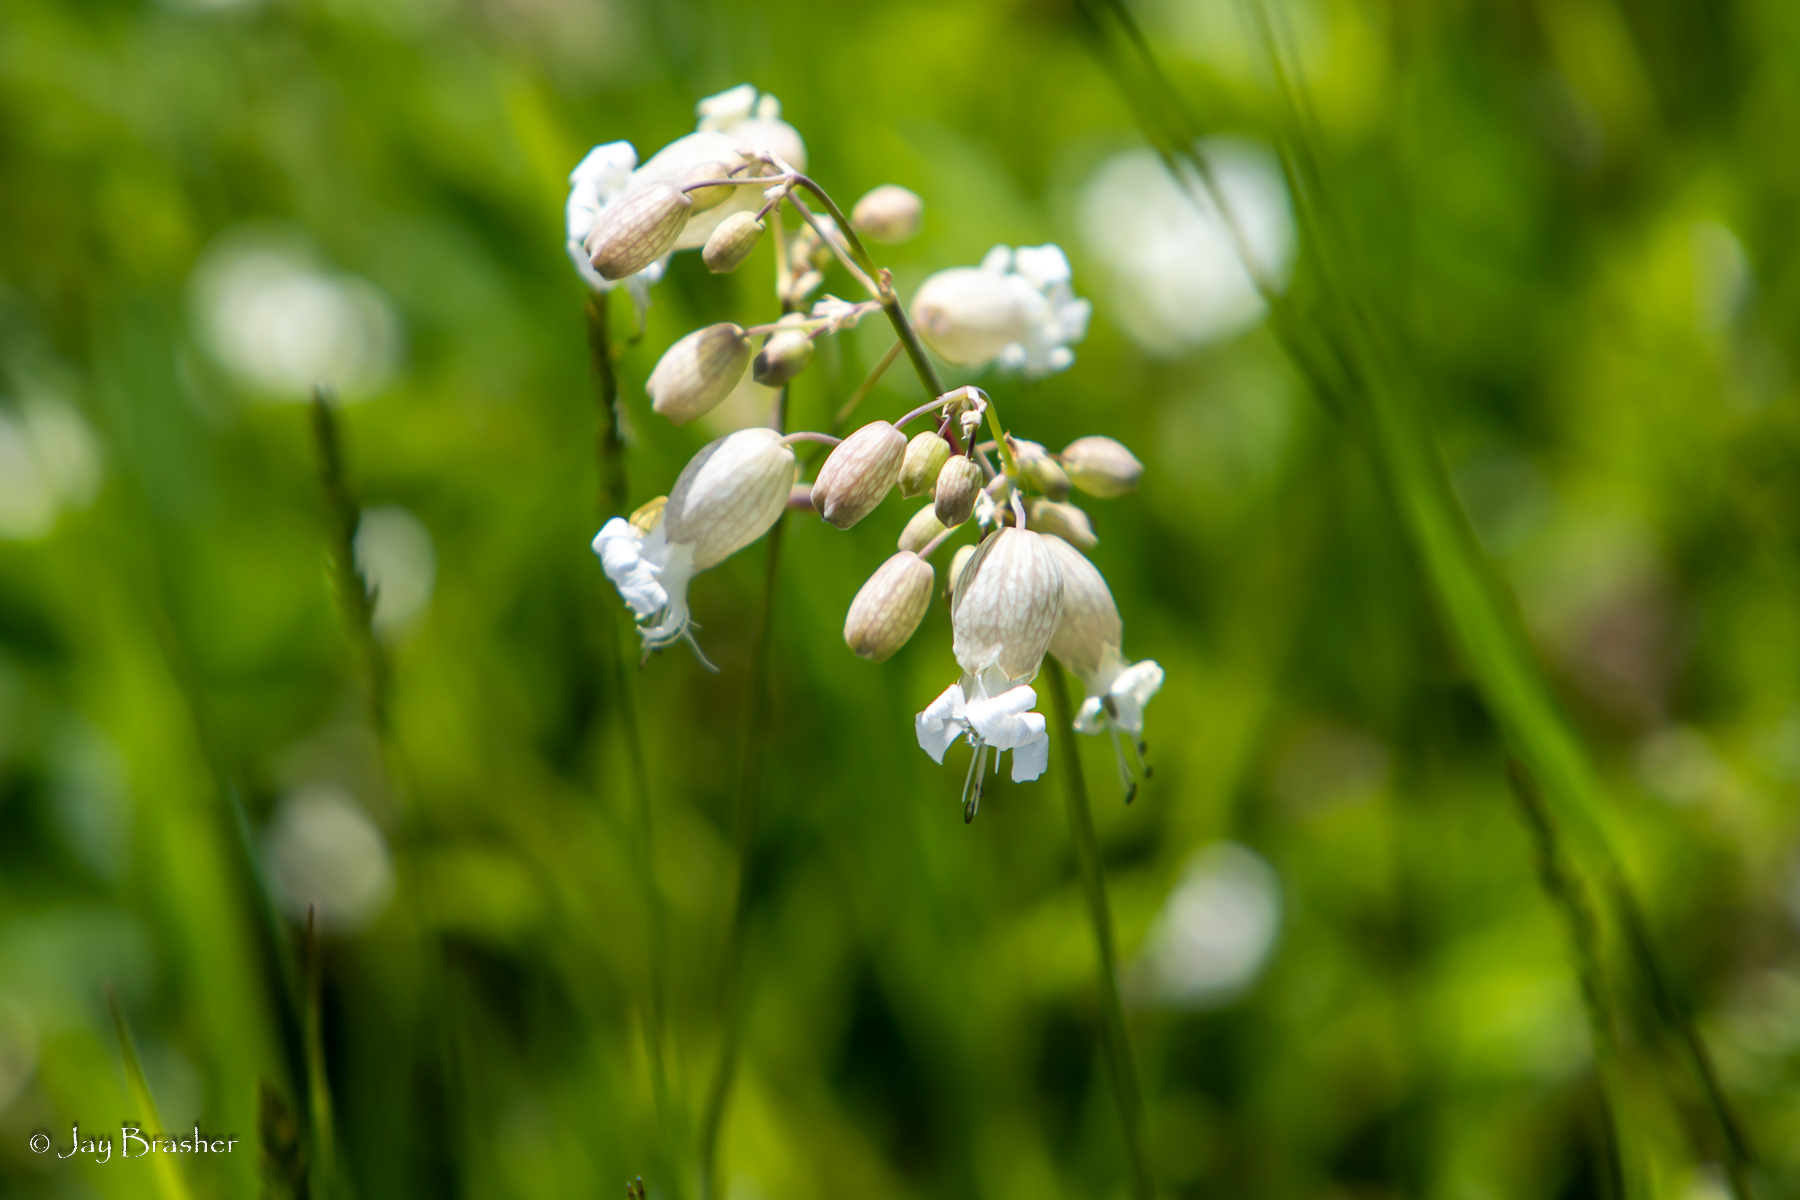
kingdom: Plantae
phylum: Tracheophyta
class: Magnoliopsida
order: Caryophyllales
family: Caryophyllaceae
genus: Silene
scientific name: Silene vulgaris
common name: Bladder campion
